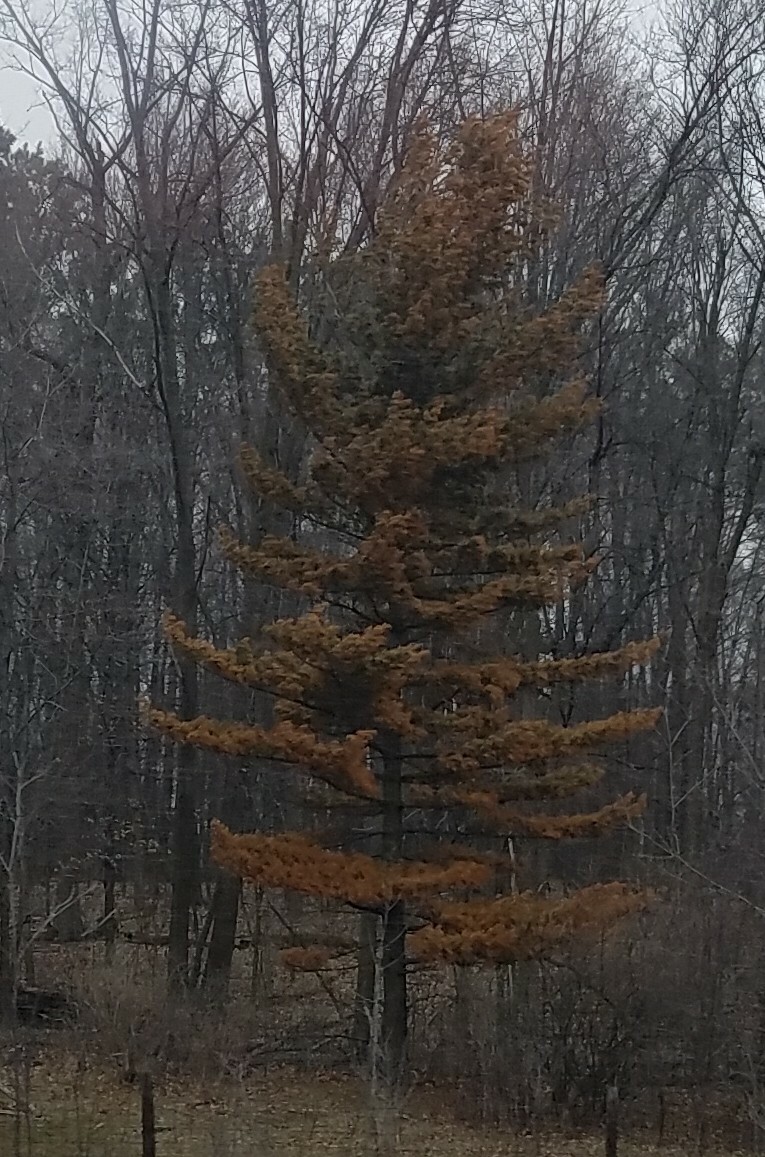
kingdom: Plantae
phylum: Tracheophyta
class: Pinopsida
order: Pinales
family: Pinaceae
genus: Pinus
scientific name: Pinus strobus
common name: Weymouth pine
